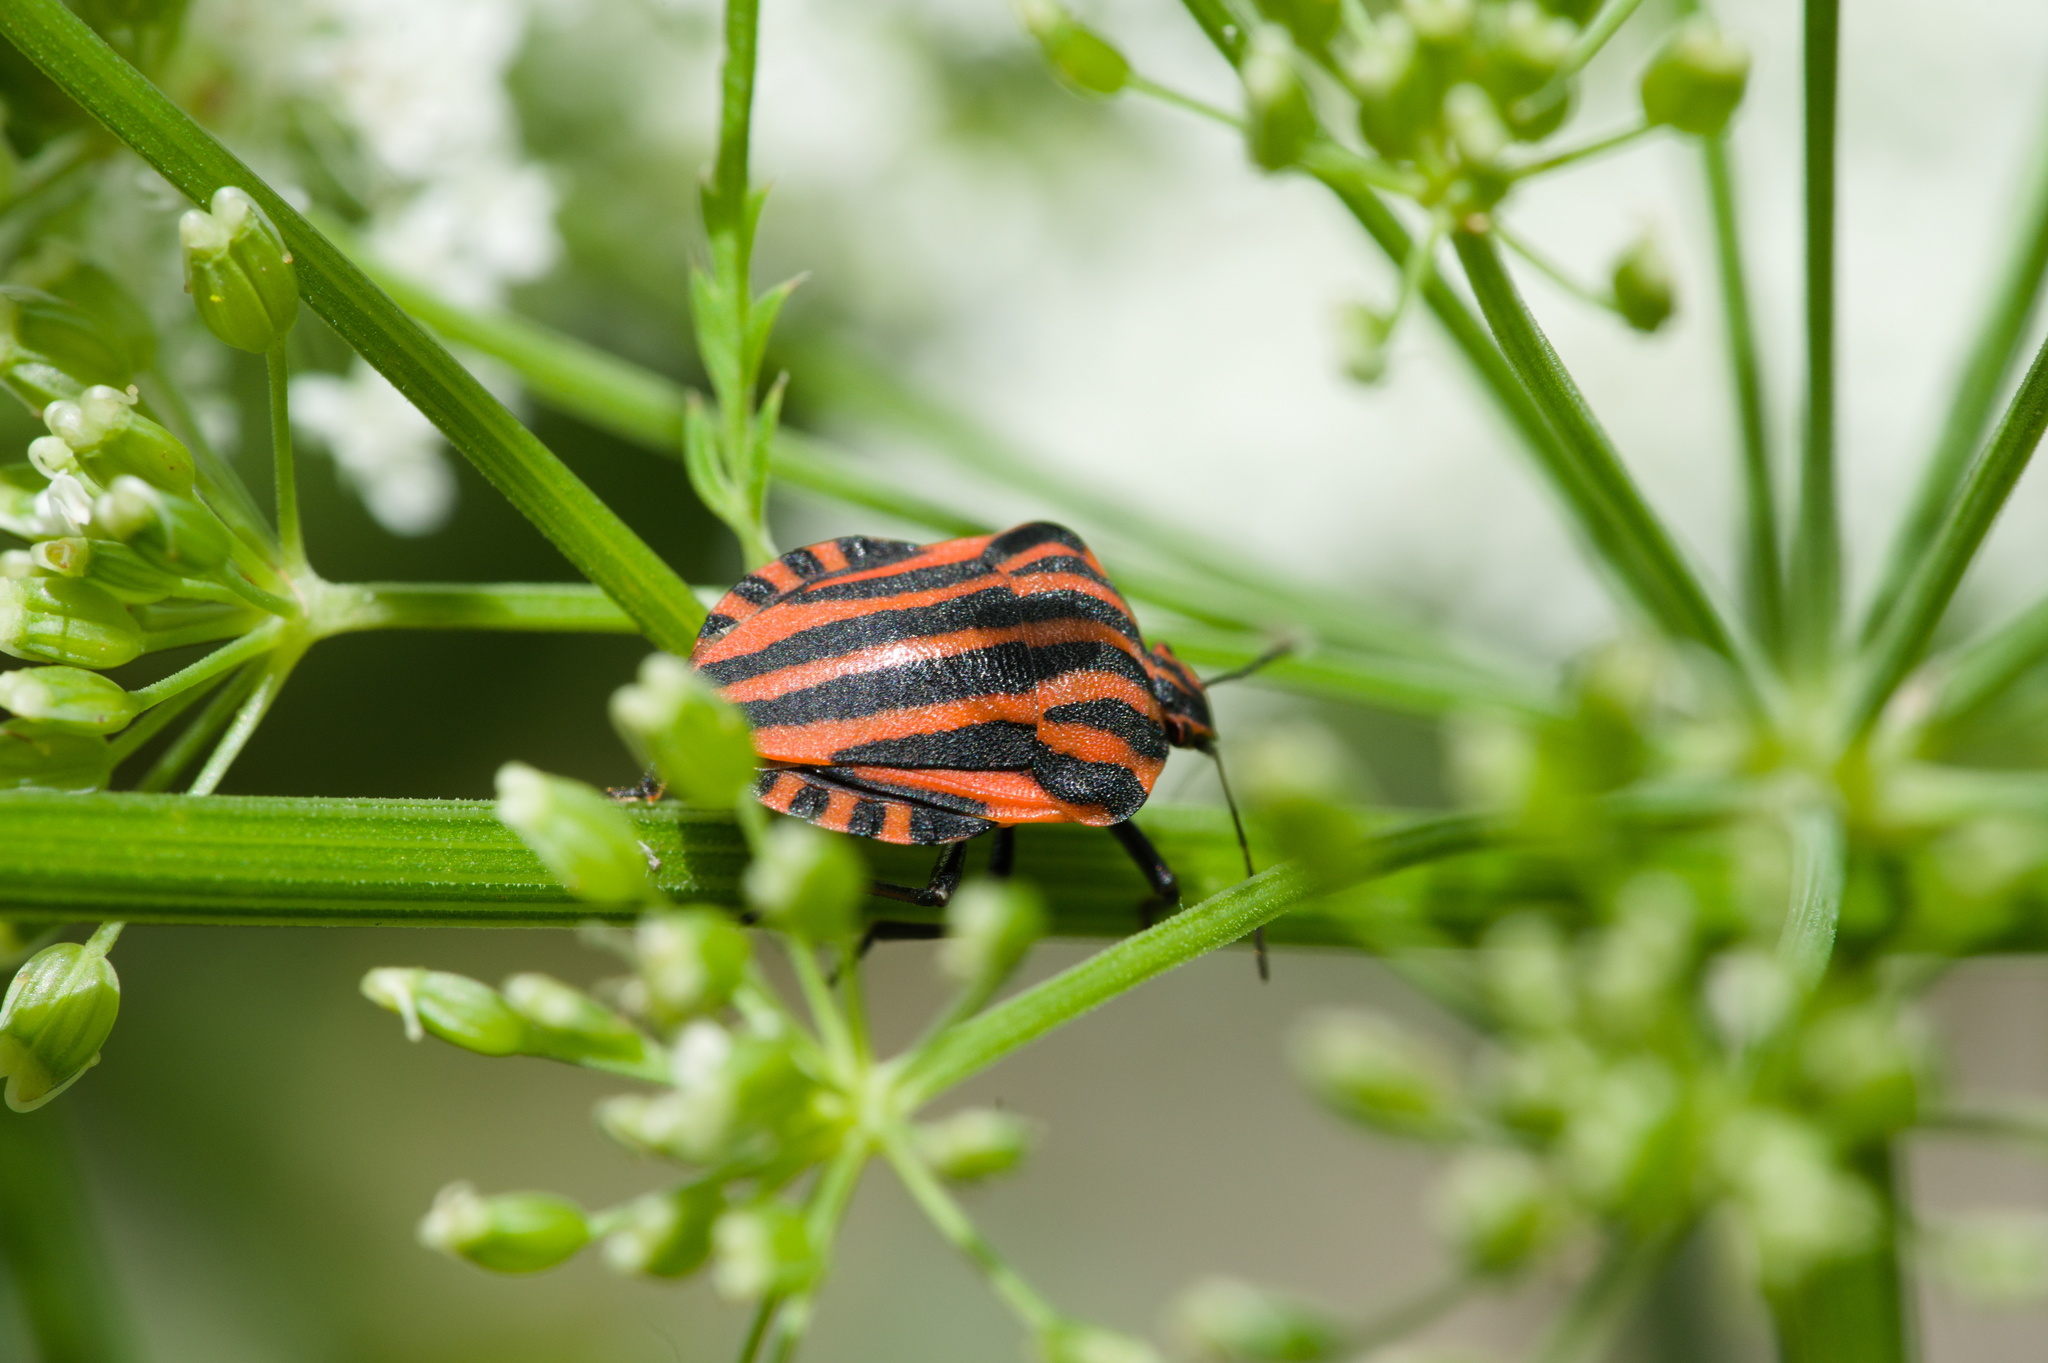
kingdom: Animalia
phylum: Arthropoda
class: Insecta
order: Hemiptera
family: Pentatomidae
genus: Graphosoma
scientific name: Graphosoma italicum
